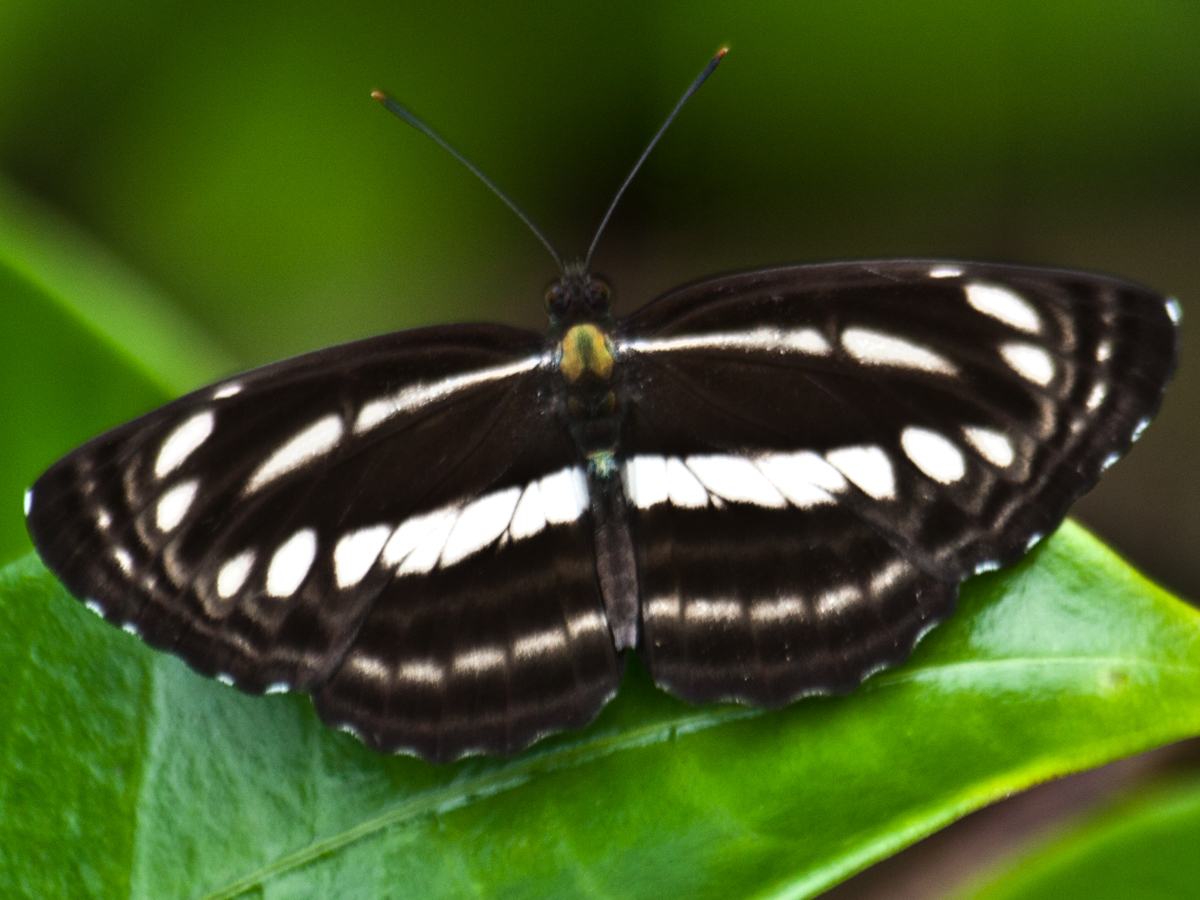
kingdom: Animalia
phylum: Arthropoda
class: Insecta
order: Lepidoptera
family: Nymphalidae
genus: Neptis
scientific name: Neptis clinia
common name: Southern sullied sailer
